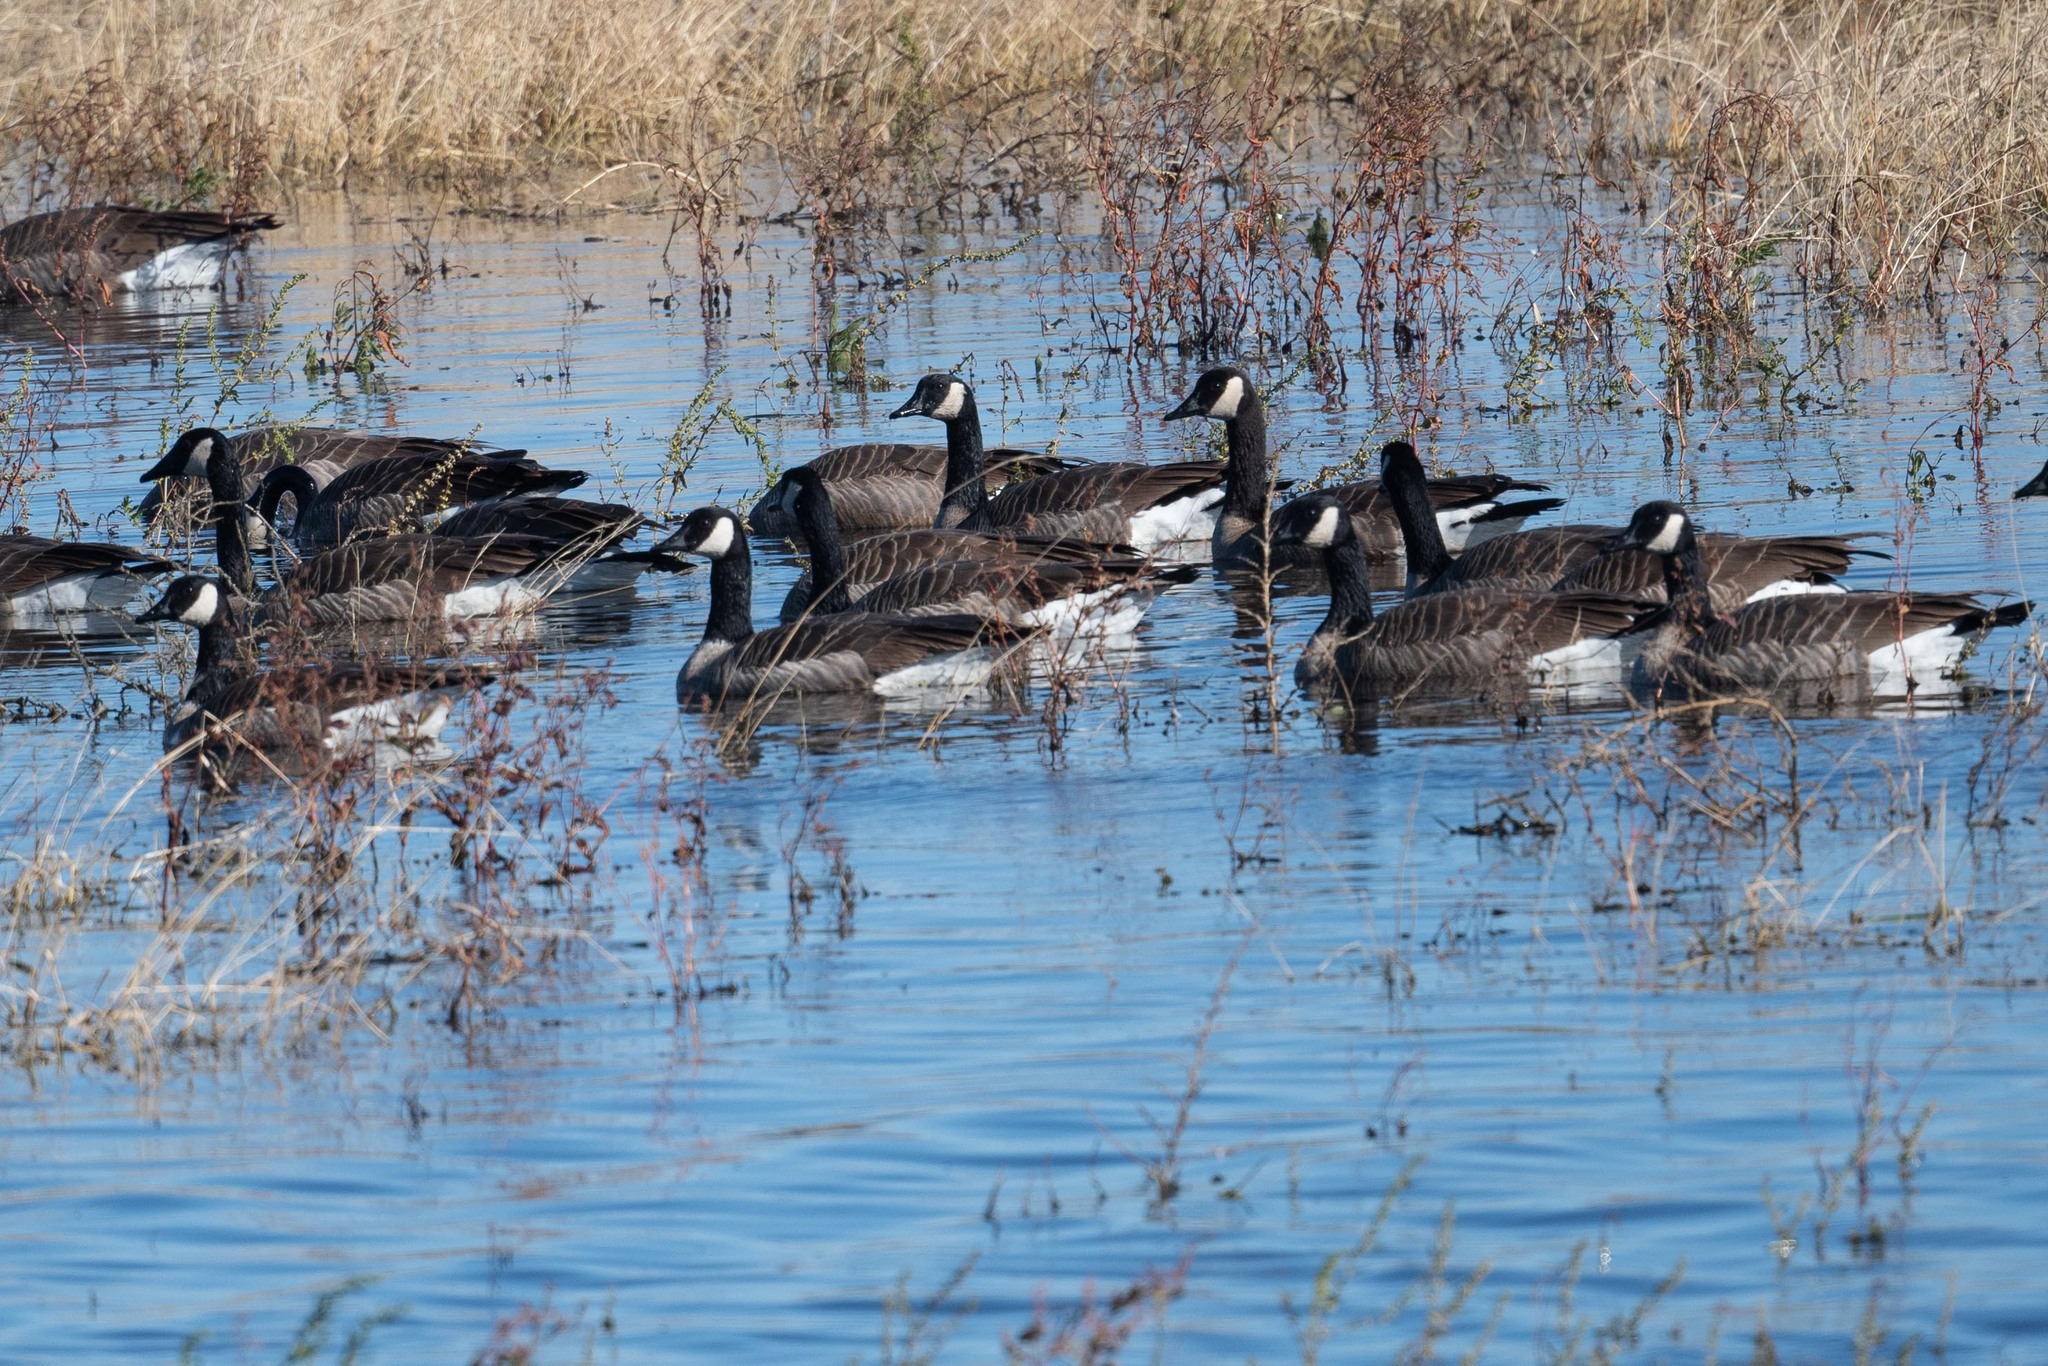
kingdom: Animalia
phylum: Chordata
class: Aves
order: Anseriformes
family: Anatidae
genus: Branta
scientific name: Branta canadensis
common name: Canada goose
